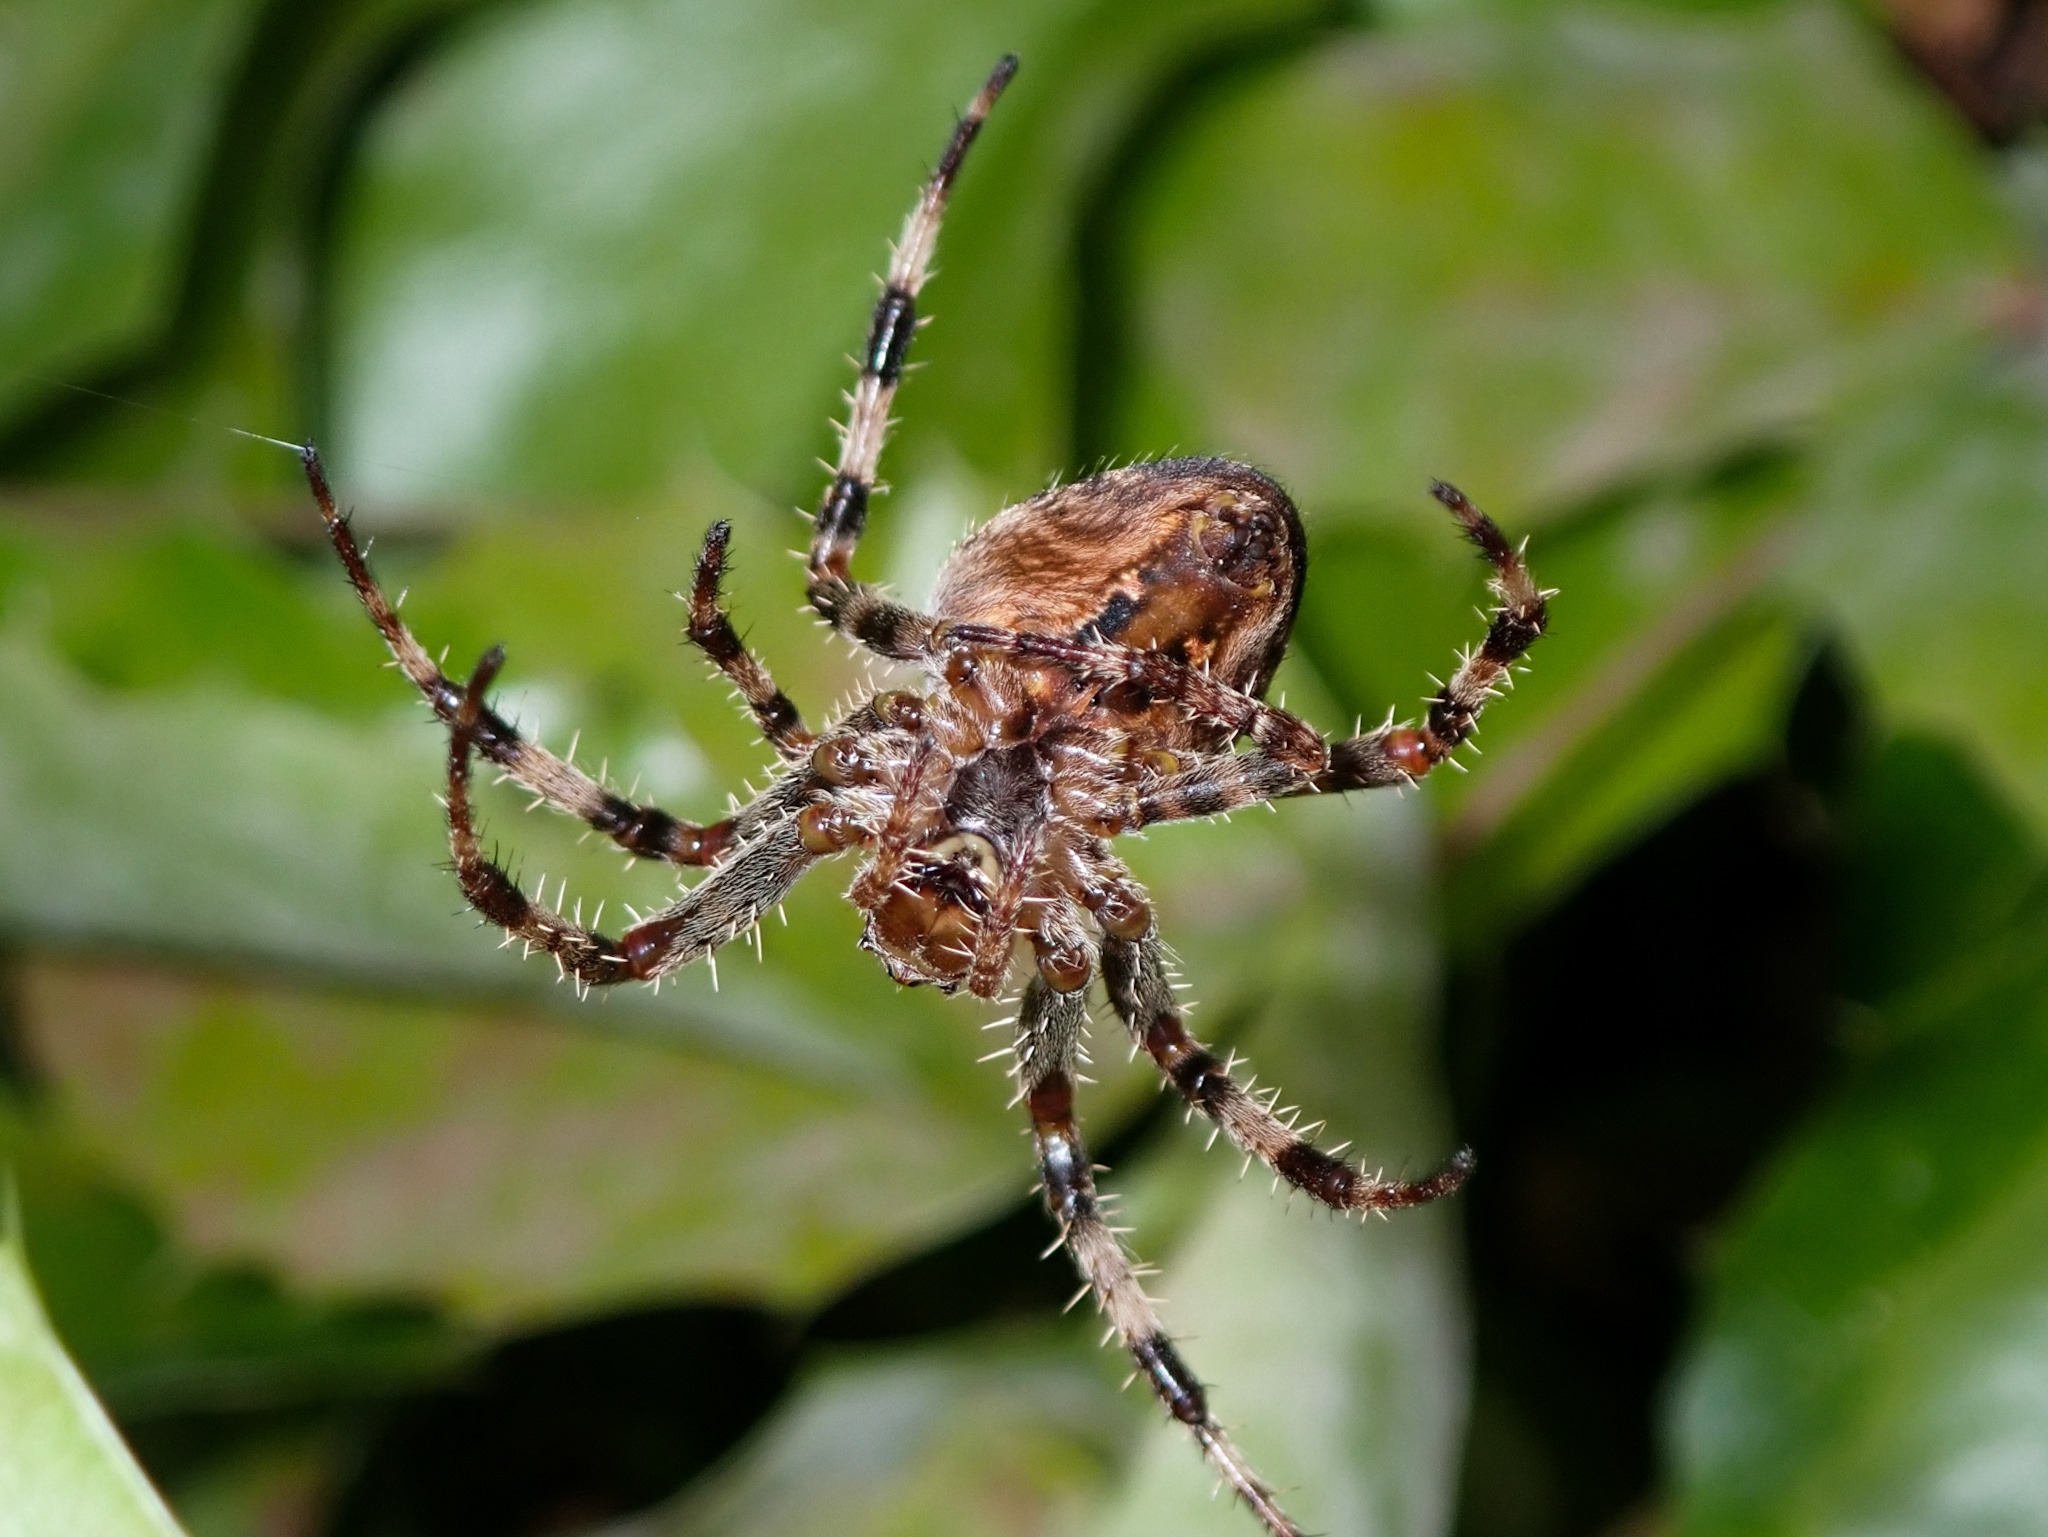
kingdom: Animalia
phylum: Arthropoda
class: Arachnida
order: Araneae
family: Araneidae
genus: Araneus
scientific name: Araneus diadematus
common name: Cross orbweaver
